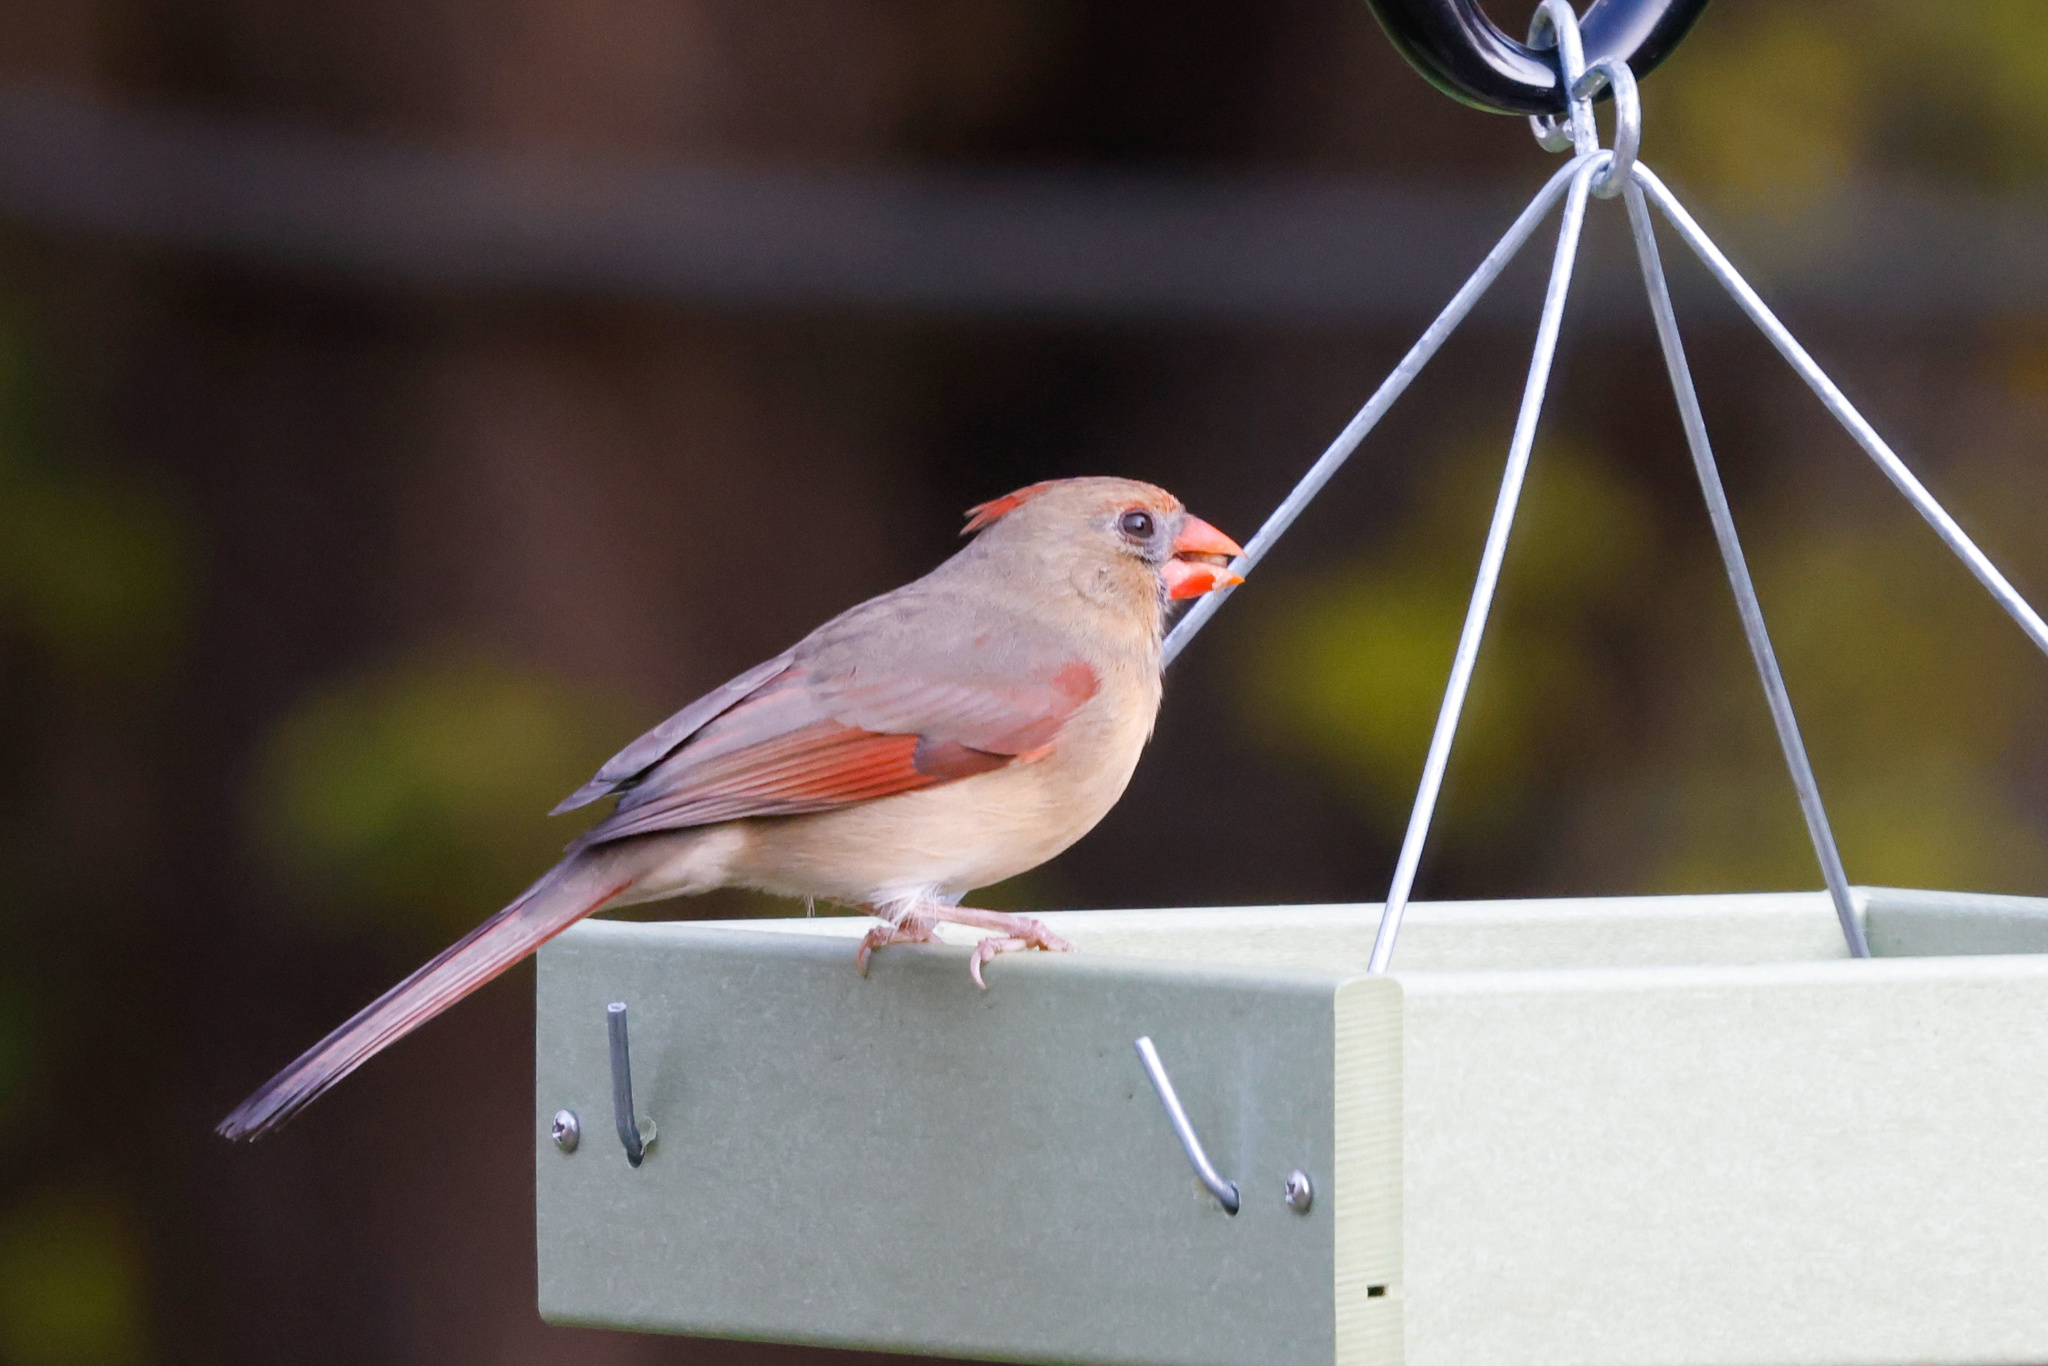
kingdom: Animalia
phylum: Chordata
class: Aves
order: Passeriformes
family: Cardinalidae
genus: Cardinalis
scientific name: Cardinalis cardinalis
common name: Northern cardinal
